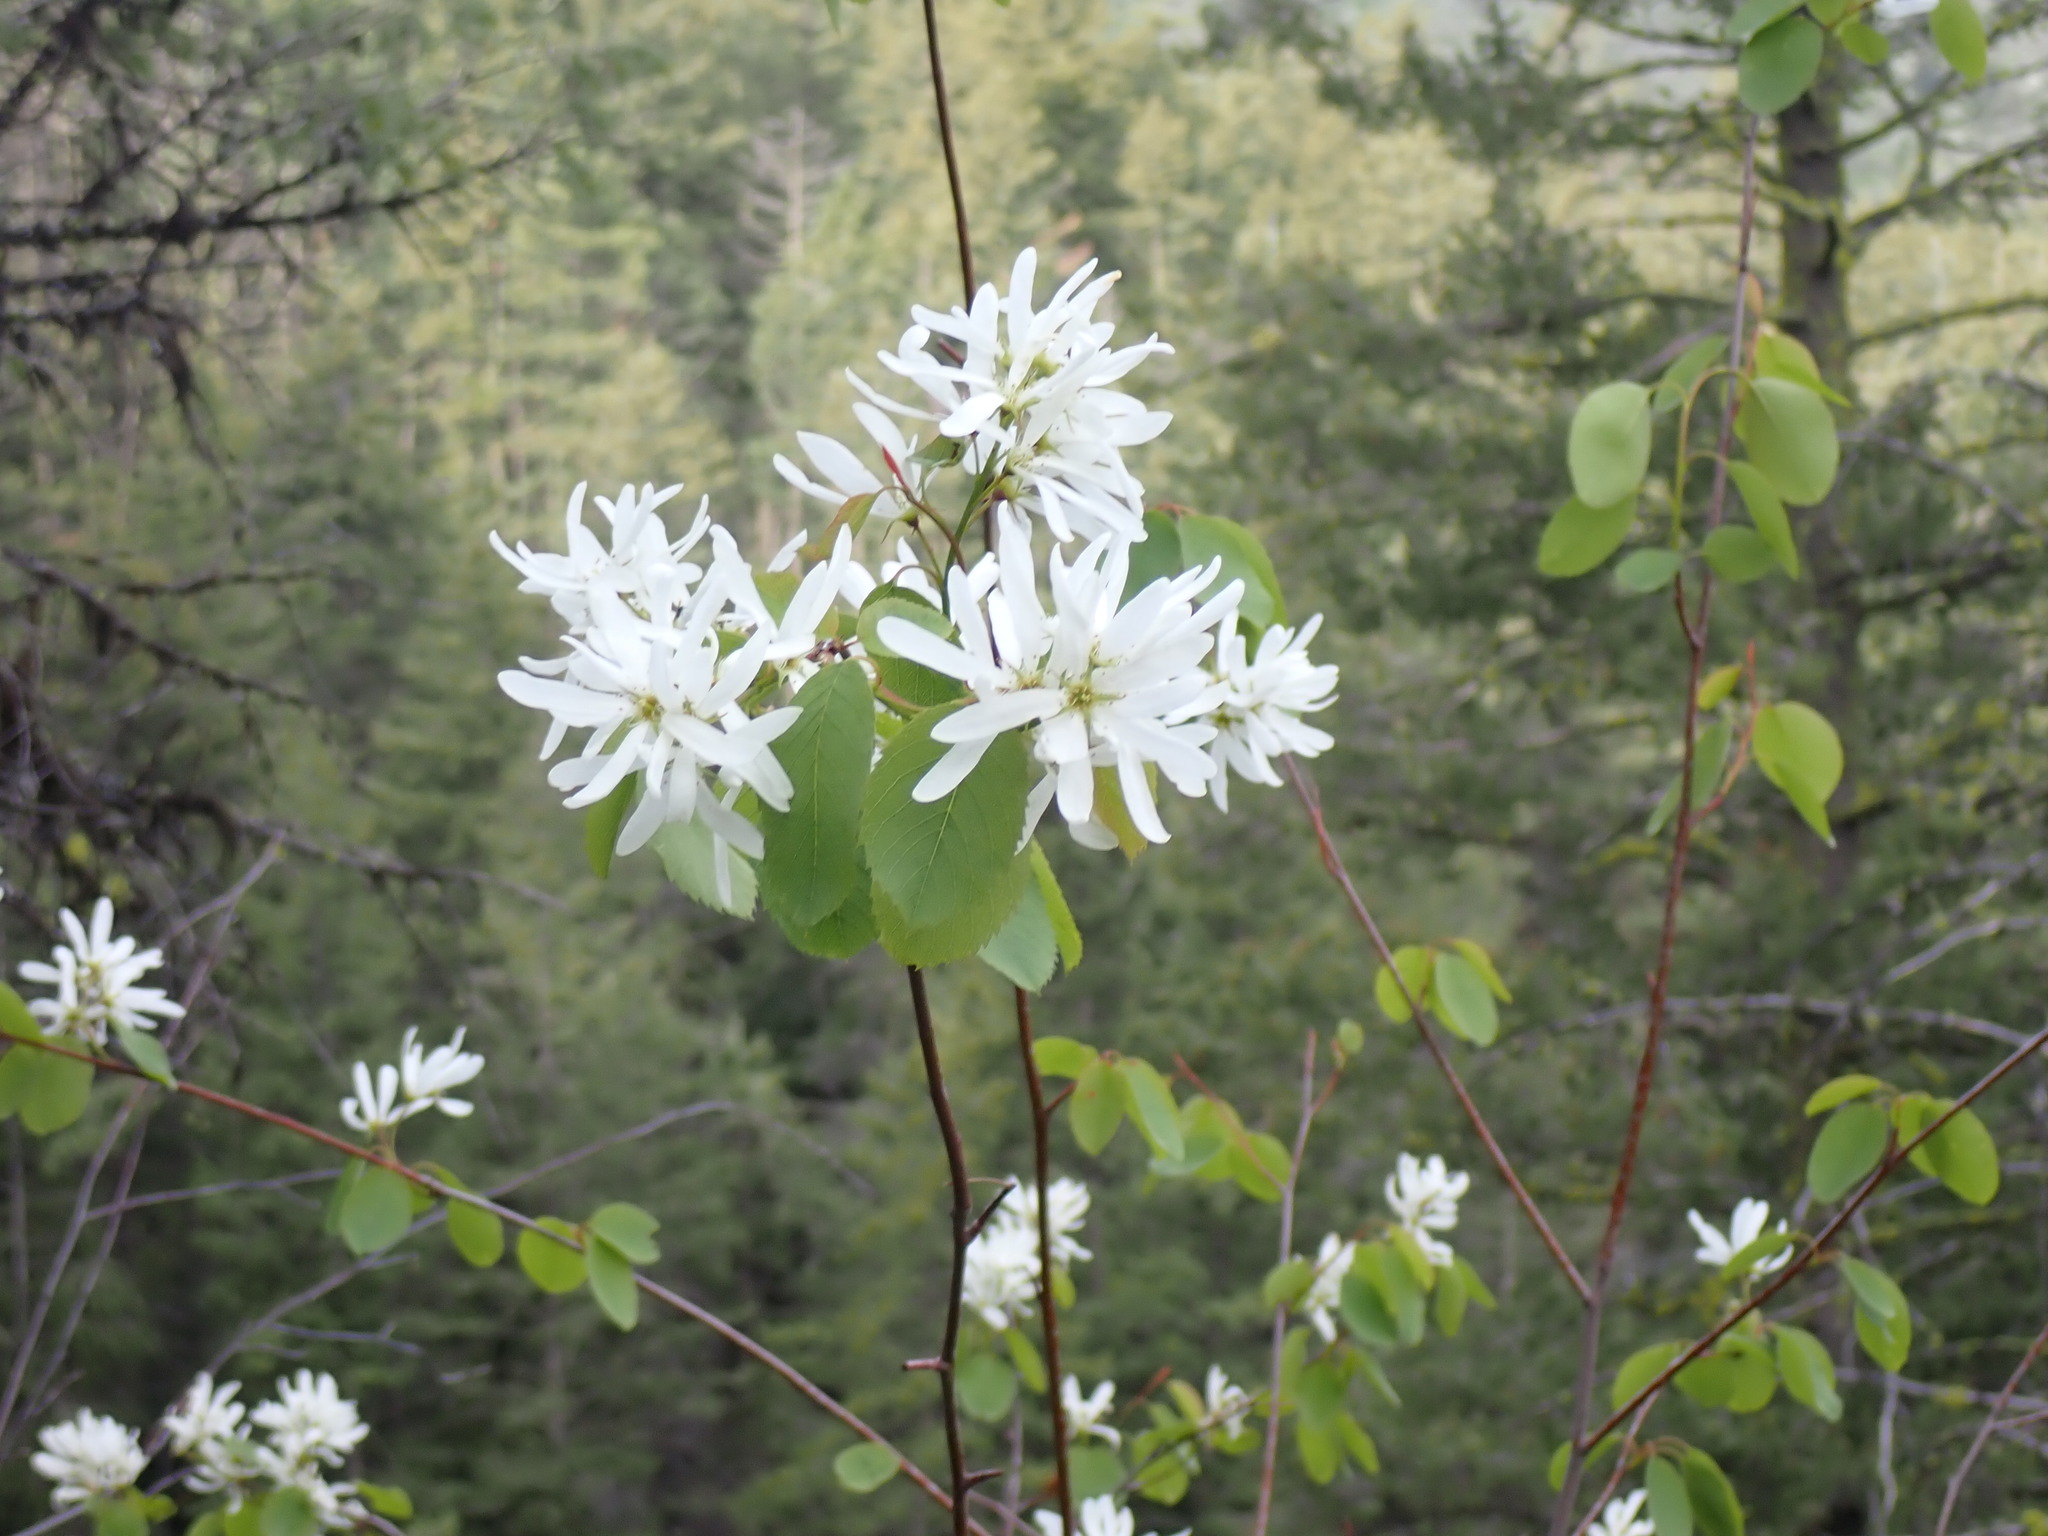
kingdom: Plantae
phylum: Tracheophyta
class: Magnoliopsida
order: Rosales
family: Rosaceae
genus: Amelanchier
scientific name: Amelanchier alnifolia
